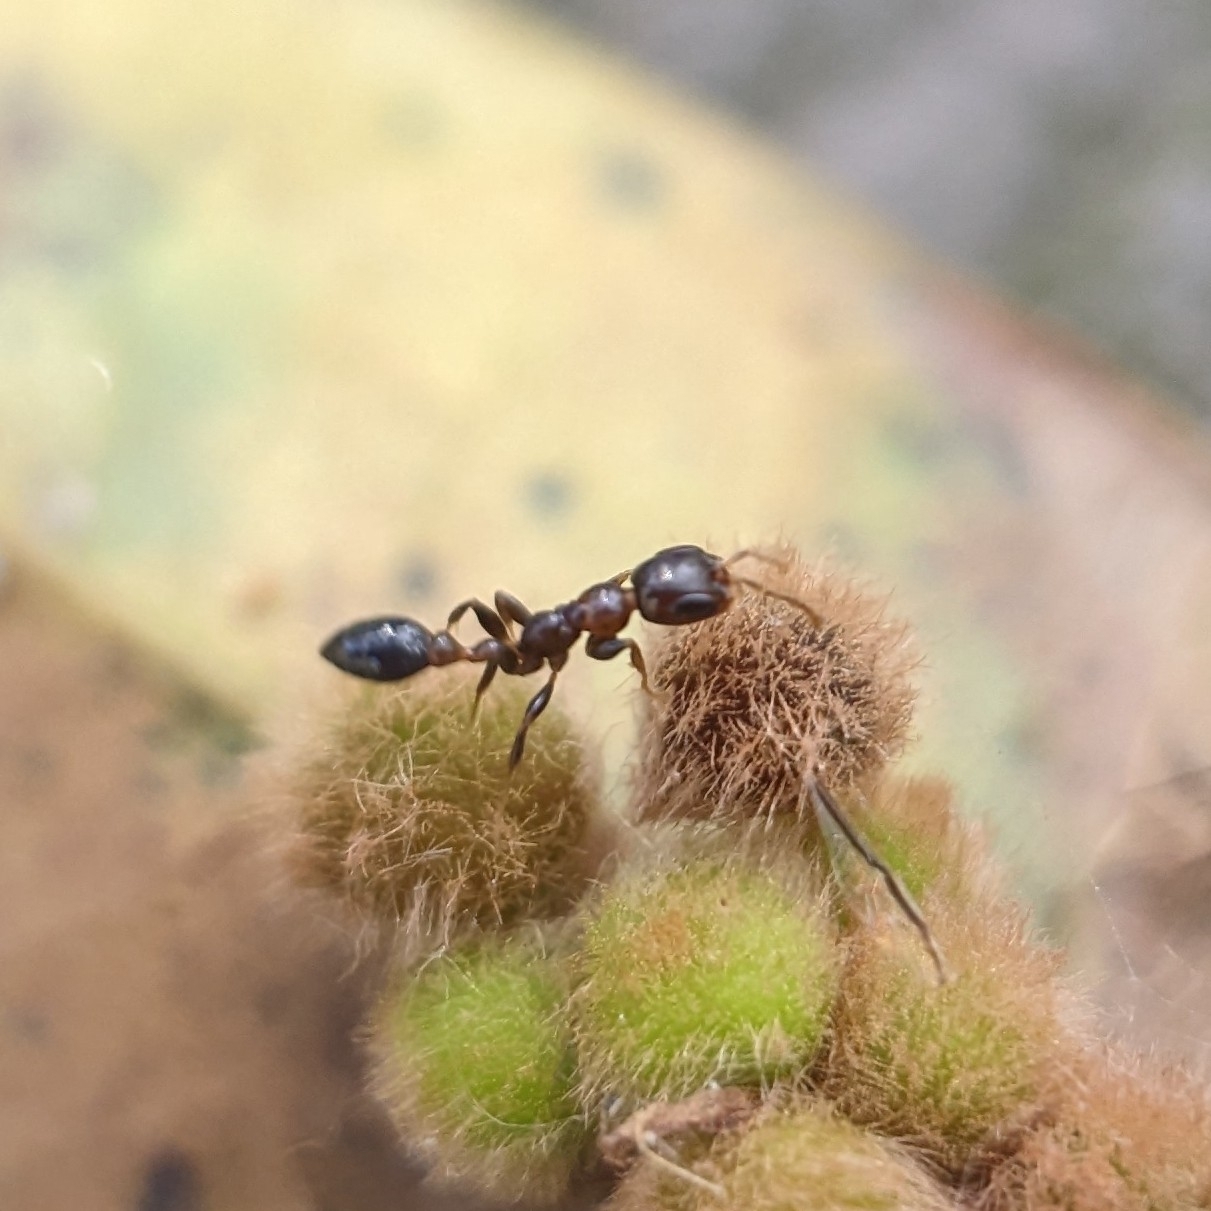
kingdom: Animalia
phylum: Arthropoda
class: Insecta
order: Hymenoptera
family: Formicidae
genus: Pseudomyrmex
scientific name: Pseudomyrmex ejectus
